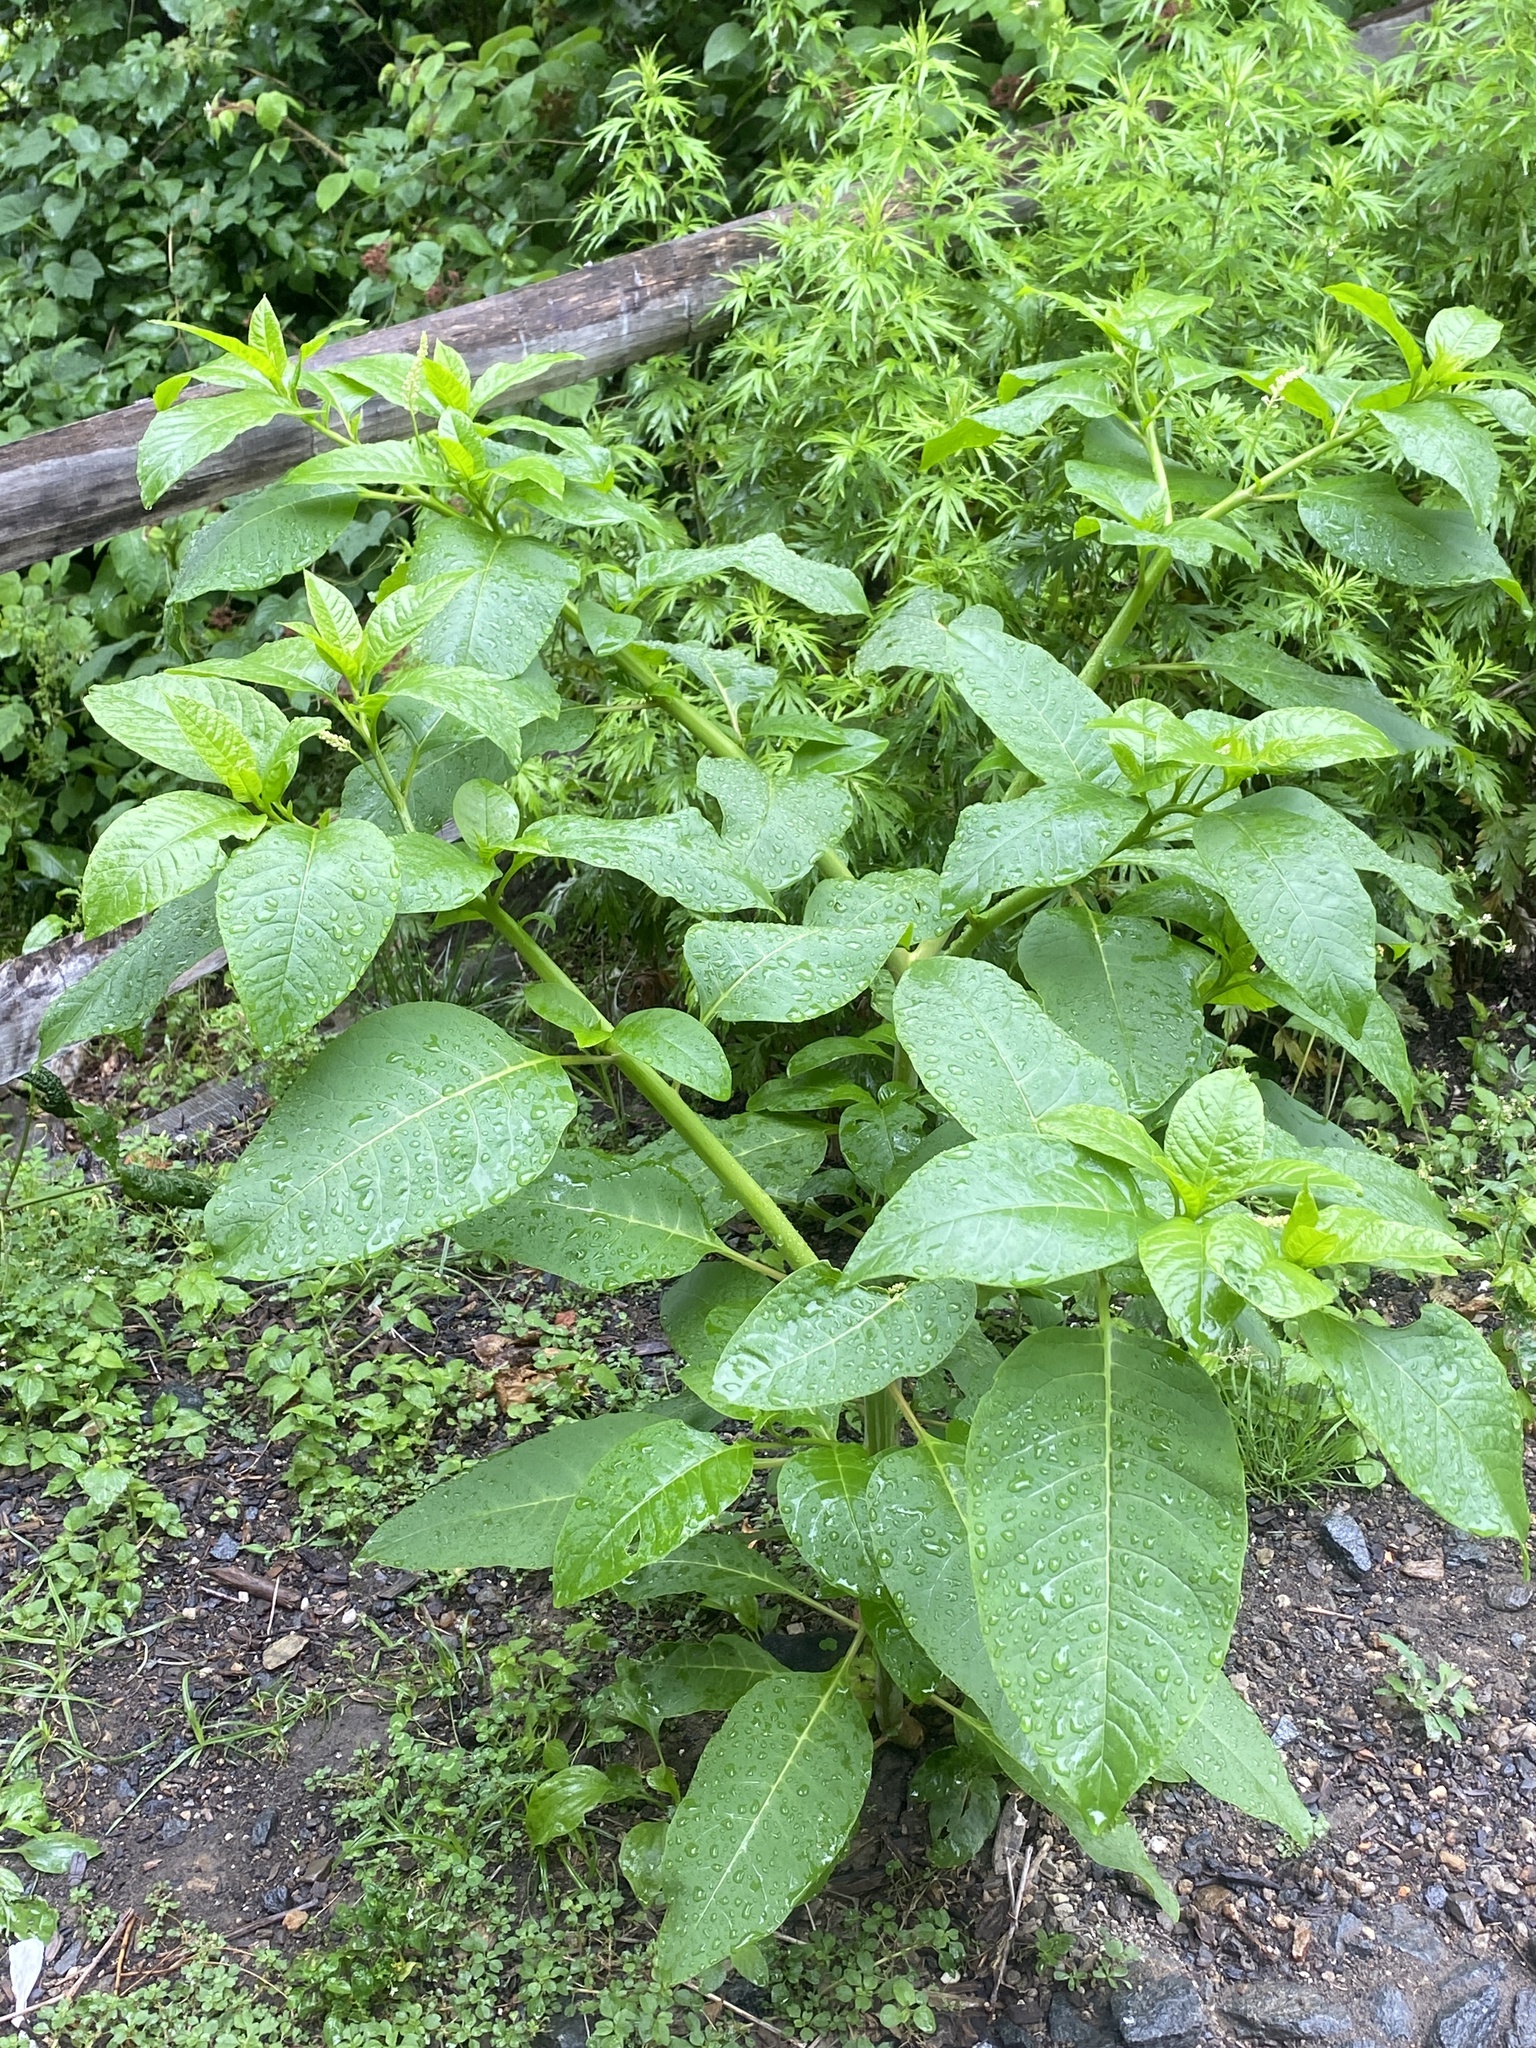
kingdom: Plantae
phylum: Tracheophyta
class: Magnoliopsida
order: Caryophyllales
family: Phytolaccaceae
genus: Phytolacca
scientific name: Phytolacca americana
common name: American pokeweed
